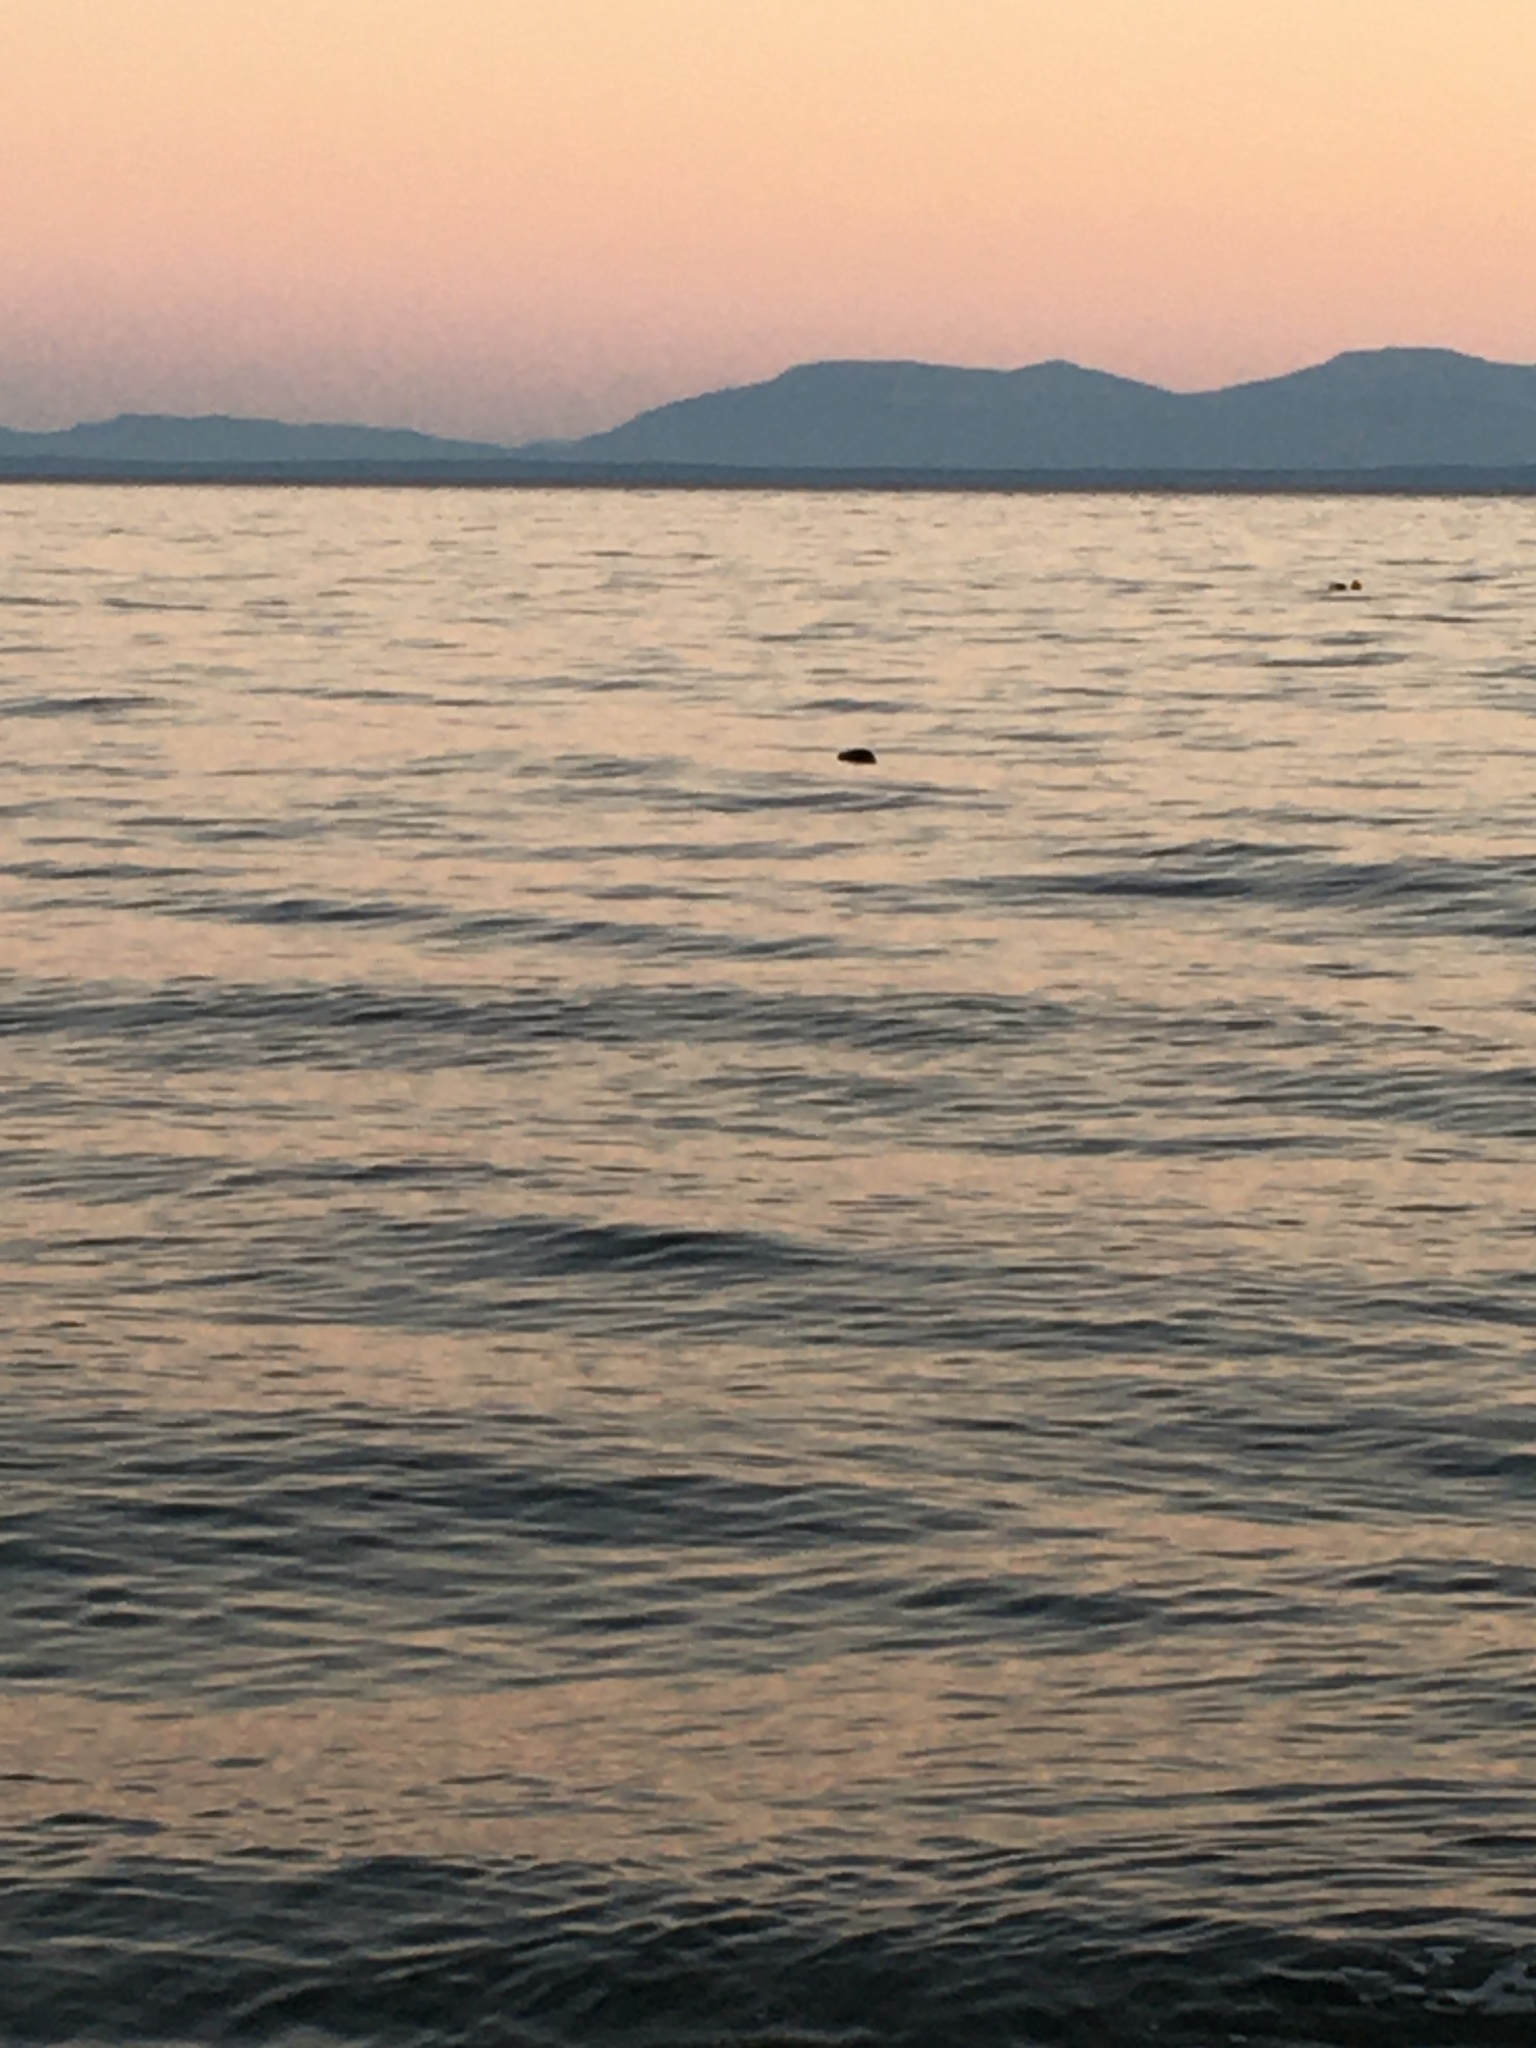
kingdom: Animalia
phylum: Chordata
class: Mammalia
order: Carnivora
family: Phocidae
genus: Phoca
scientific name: Phoca vitulina
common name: Harbor seal
